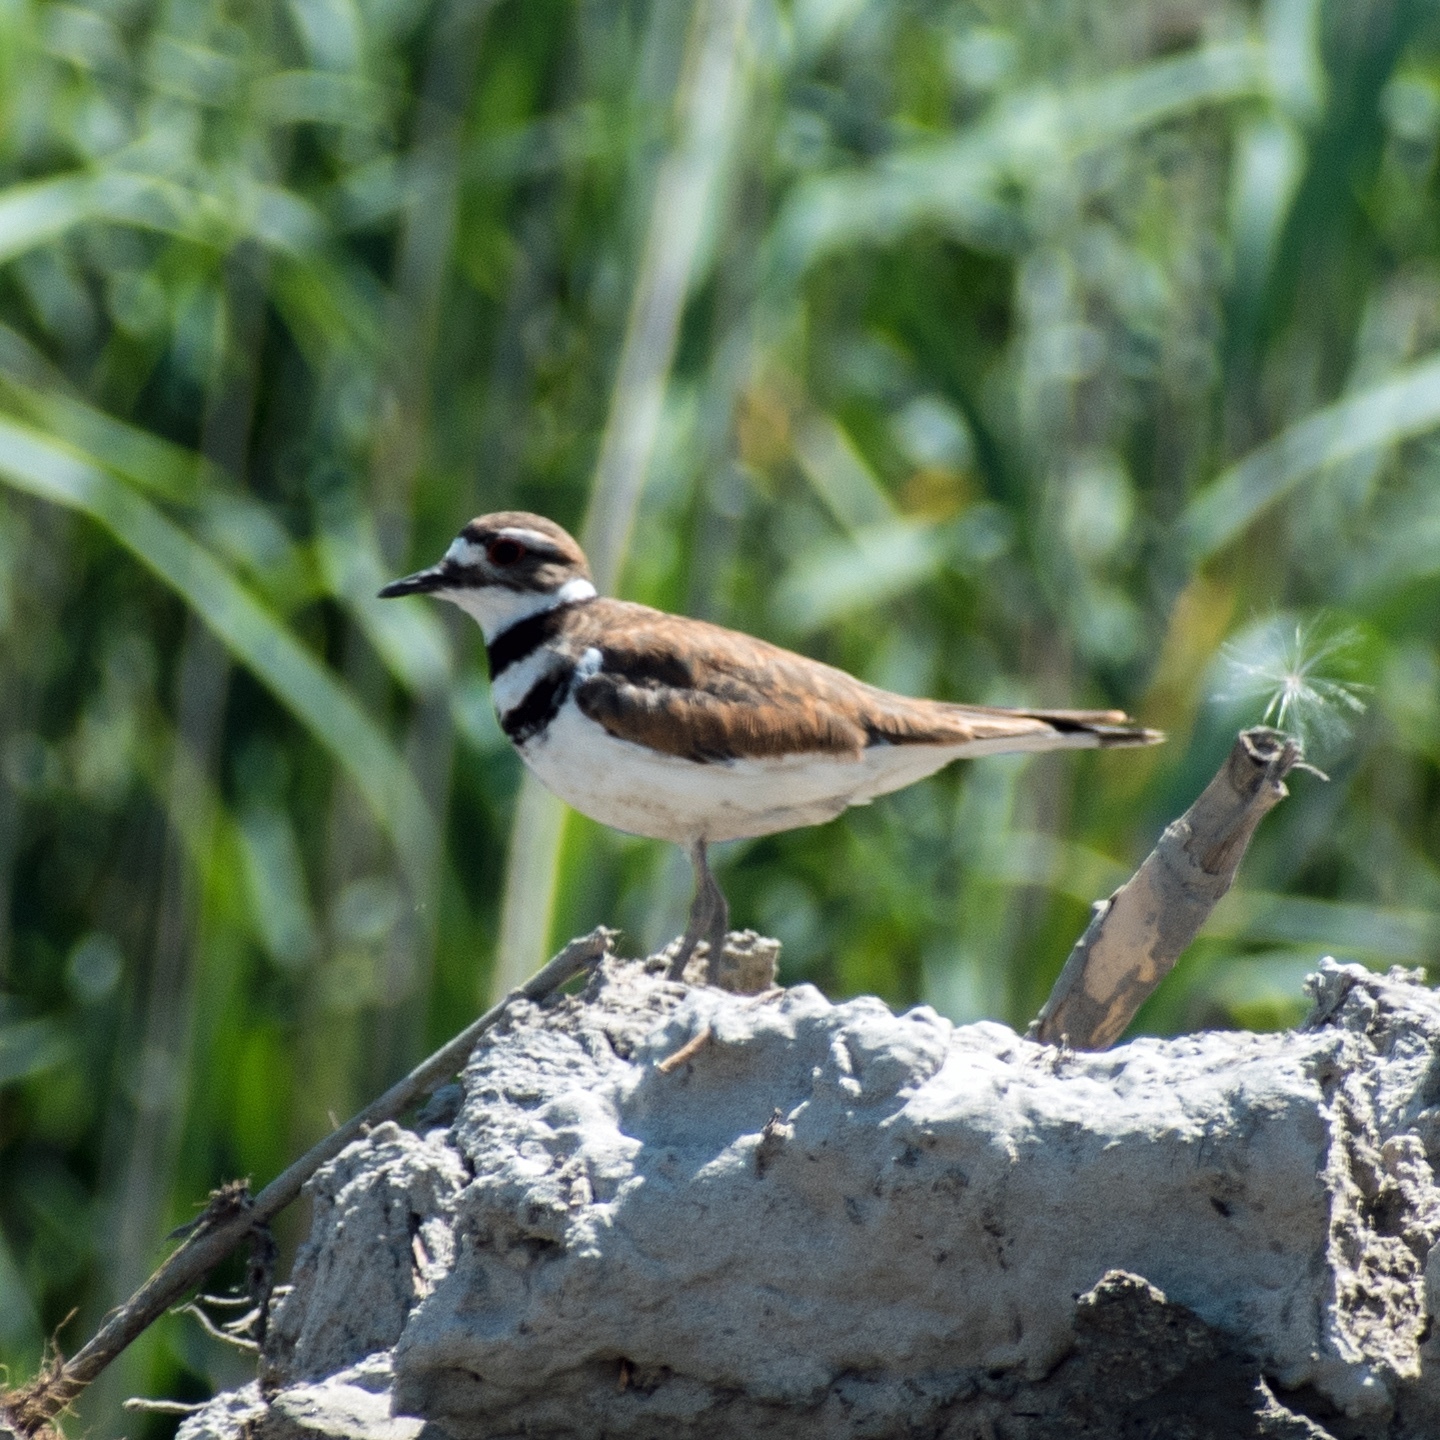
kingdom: Animalia
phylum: Chordata
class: Aves
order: Charadriiformes
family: Charadriidae
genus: Charadrius
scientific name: Charadrius vociferus
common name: Killdeer
